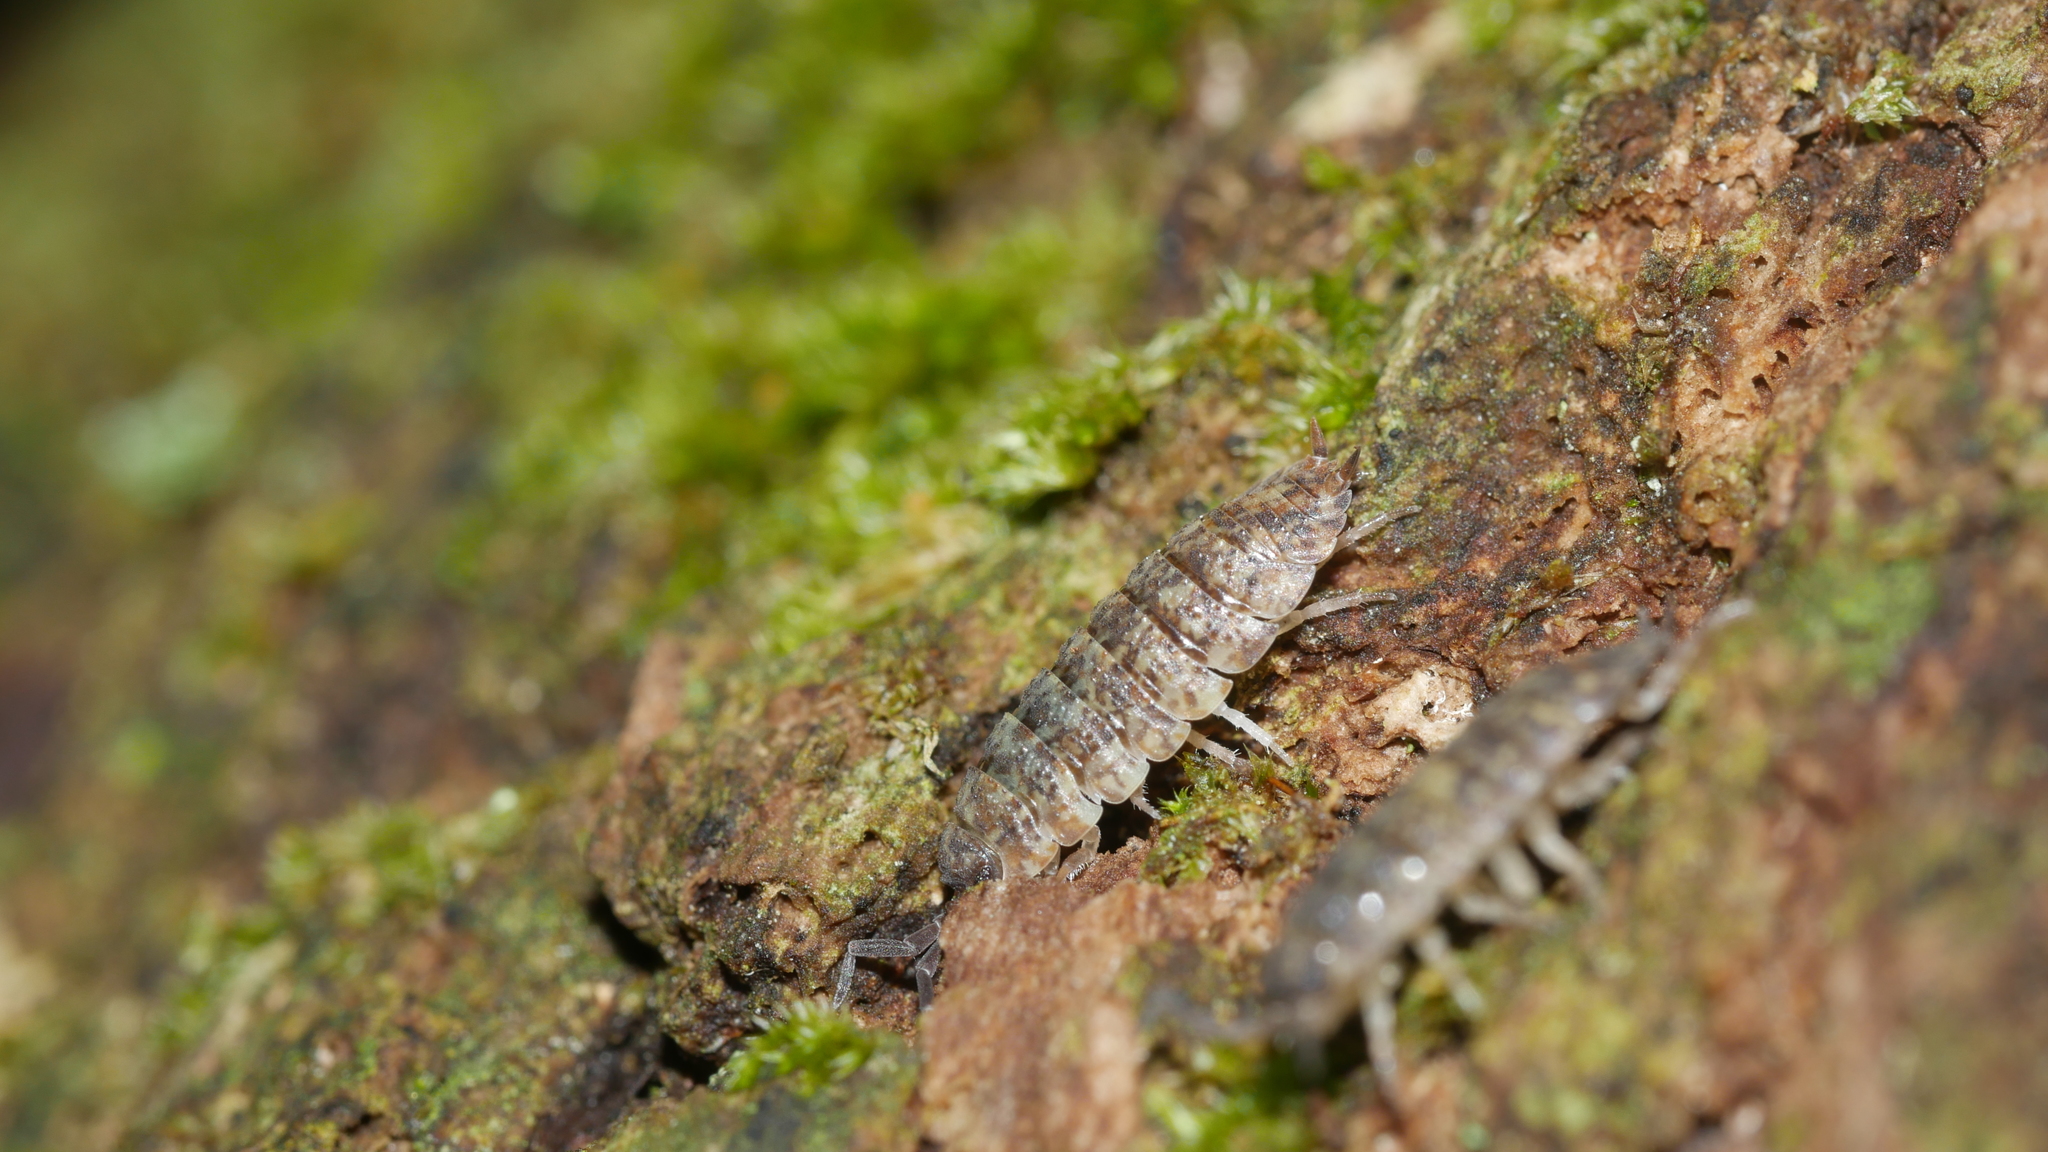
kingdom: Animalia
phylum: Arthropoda
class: Malacostraca
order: Isopoda
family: Porcellionidae
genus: Porcellio
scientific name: Porcellio scaber
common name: Common rough woodlouse
